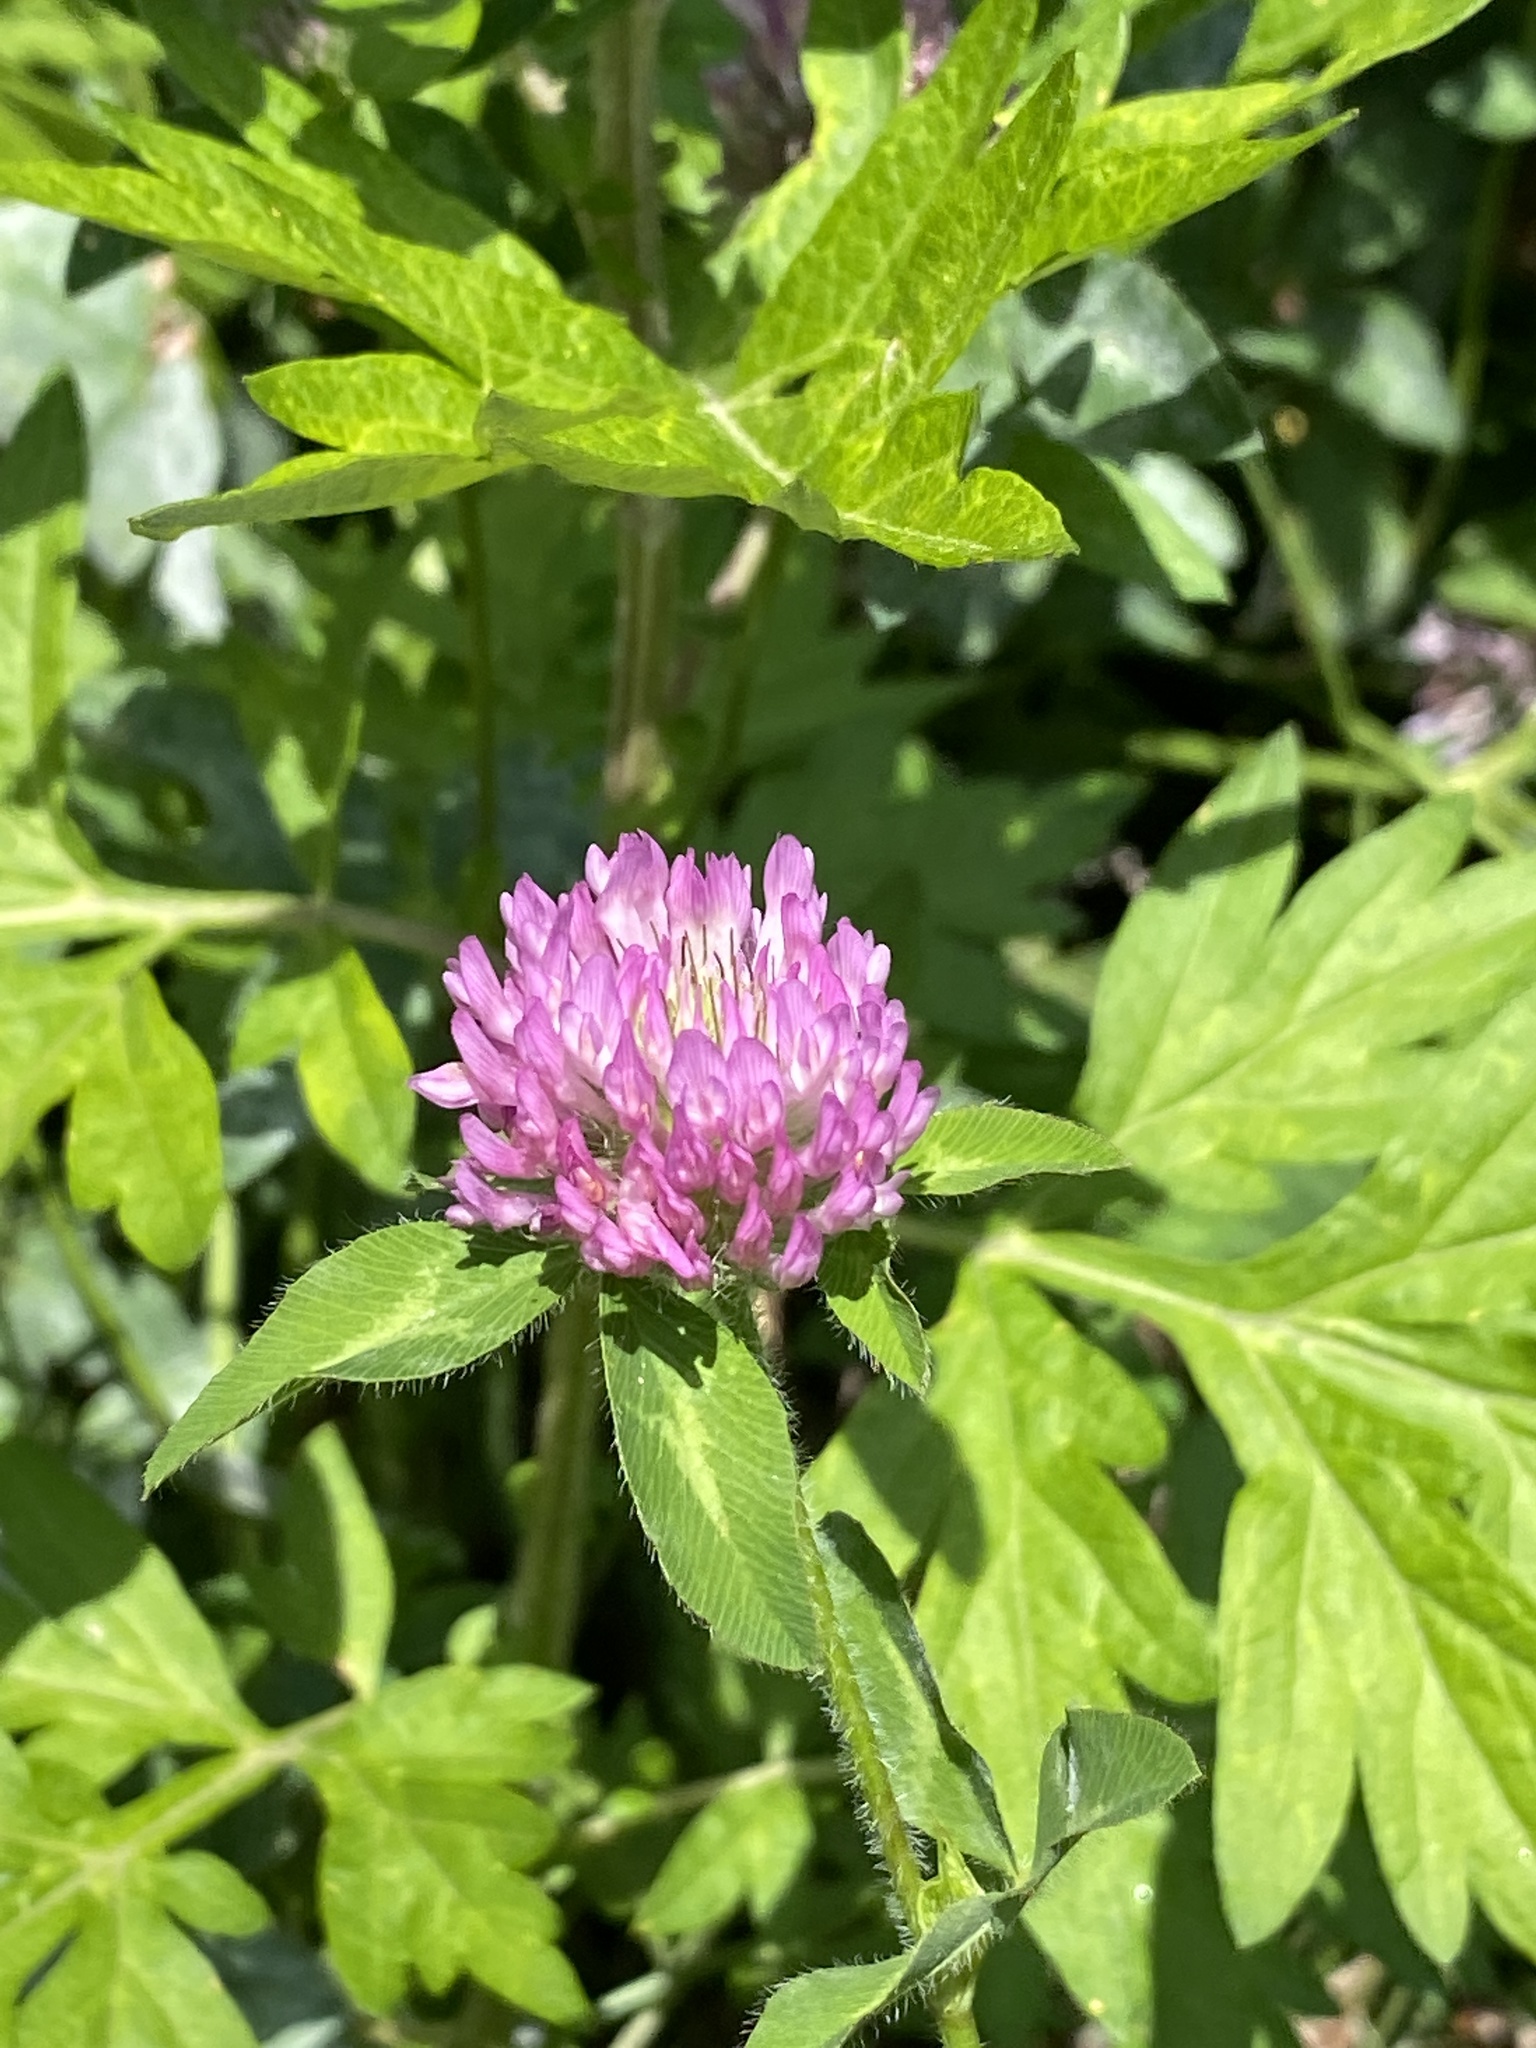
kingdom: Plantae
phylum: Tracheophyta
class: Magnoliopsida
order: Fabales
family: Fabaceae
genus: Trifolium
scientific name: Trifolium pratense
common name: Red clover
